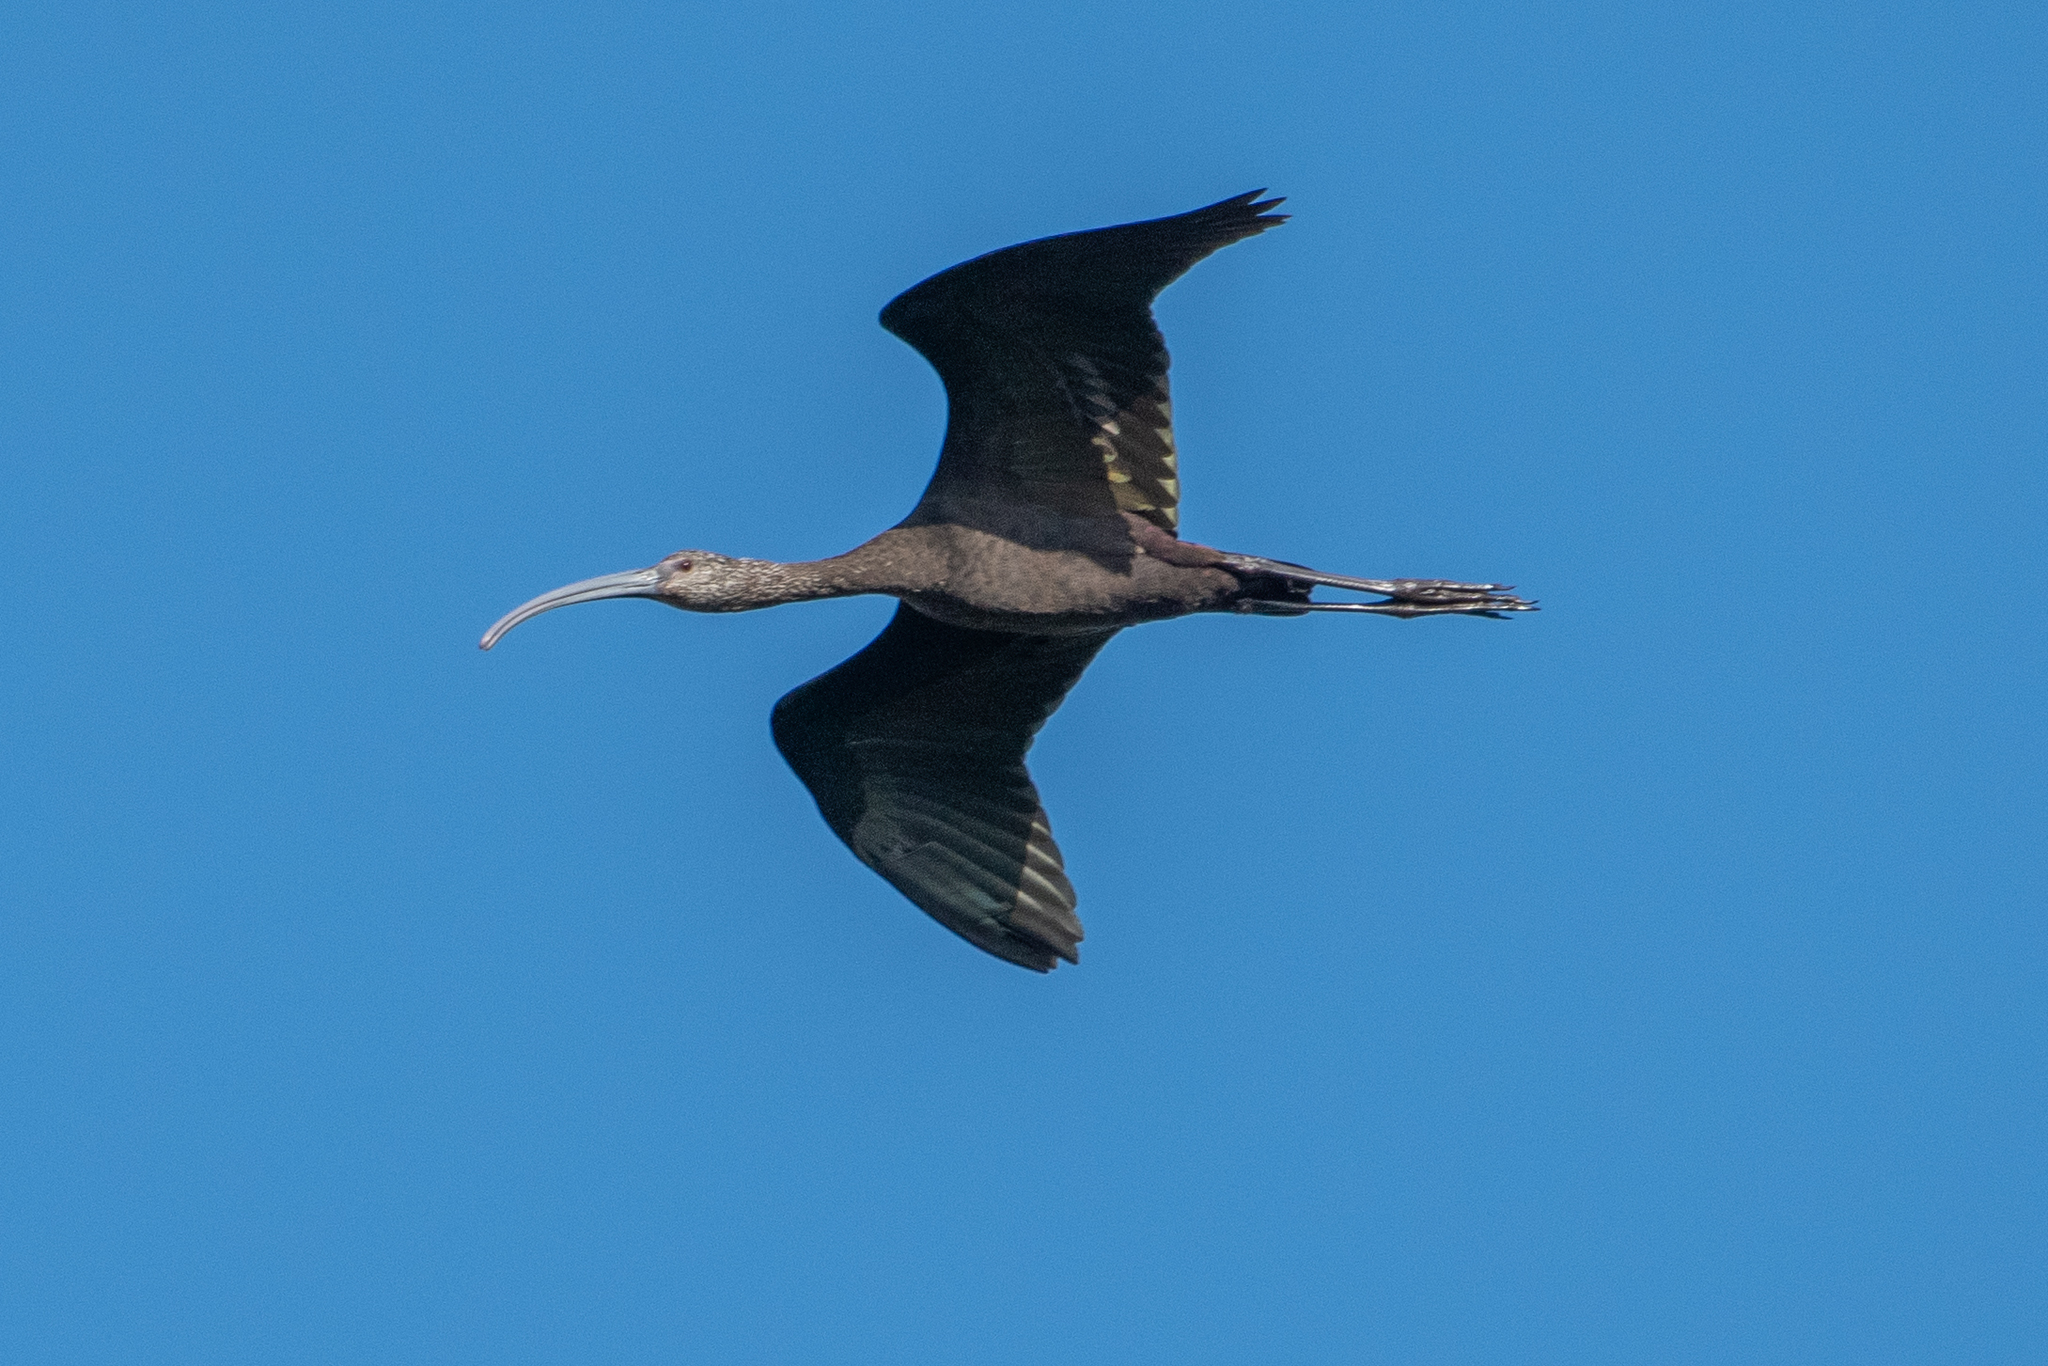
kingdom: Animalia
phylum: Chordata
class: Aves
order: Pelecaniformes
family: Threskiornithidae
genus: Plegadis
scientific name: Plegadis chihi
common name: White-faced ibis
